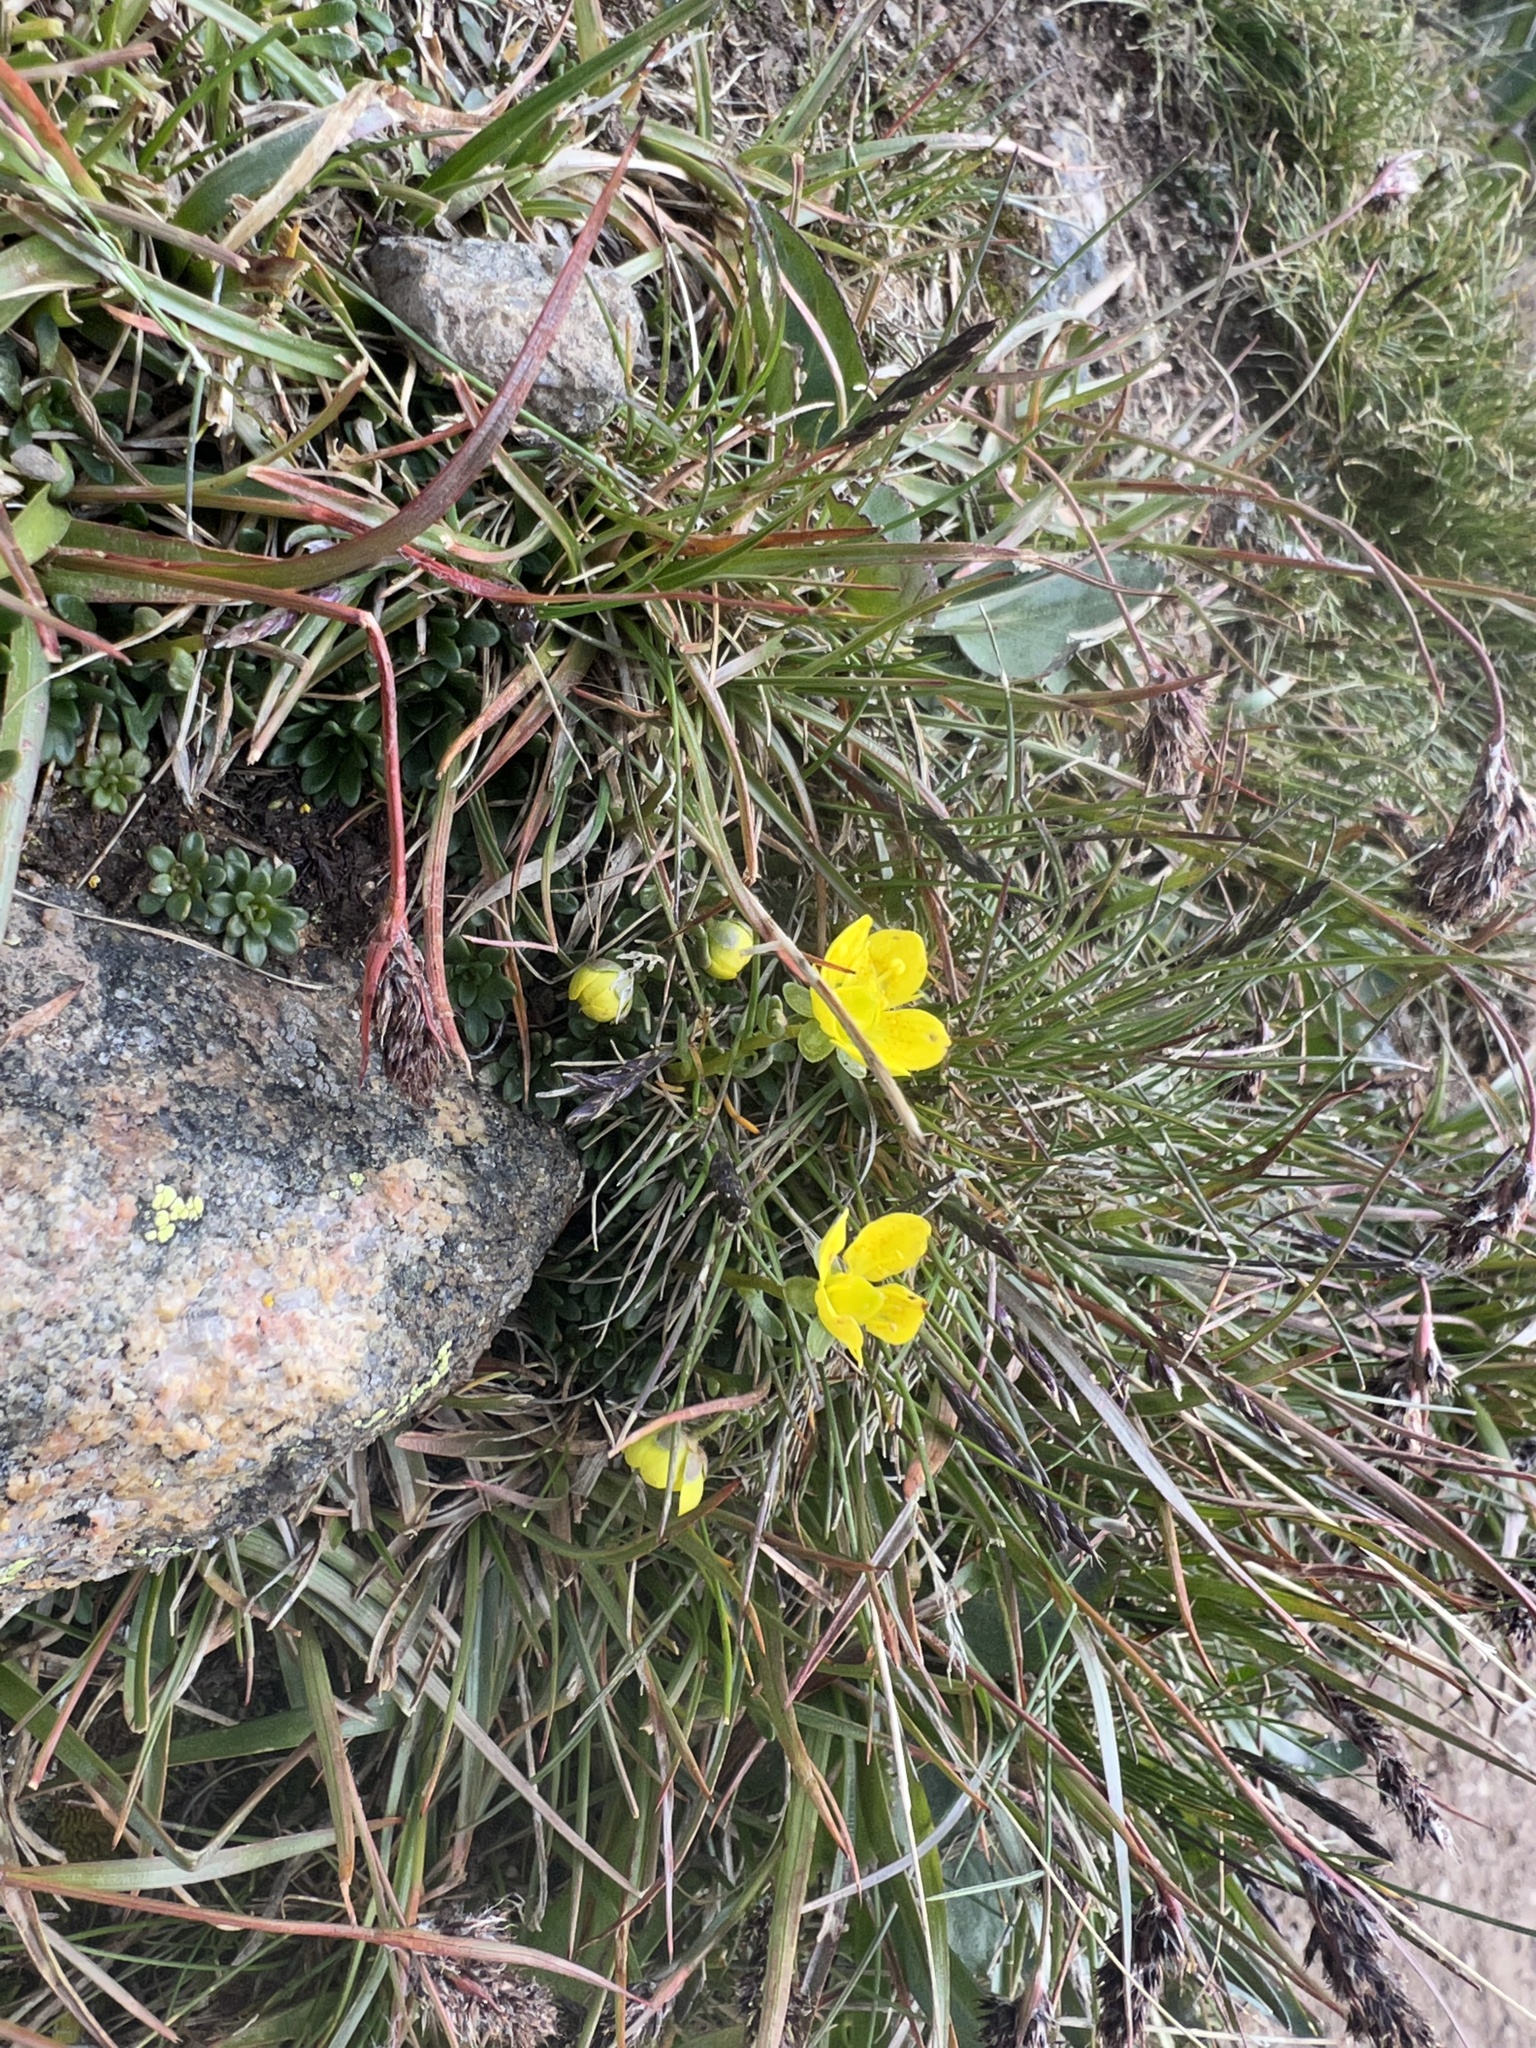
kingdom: Plantae
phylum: Tracheophyta
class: Magnoliopsida
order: Saxifragales
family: Saxifragaceae
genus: Saxifraga
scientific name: Saxifraga chrysantha
